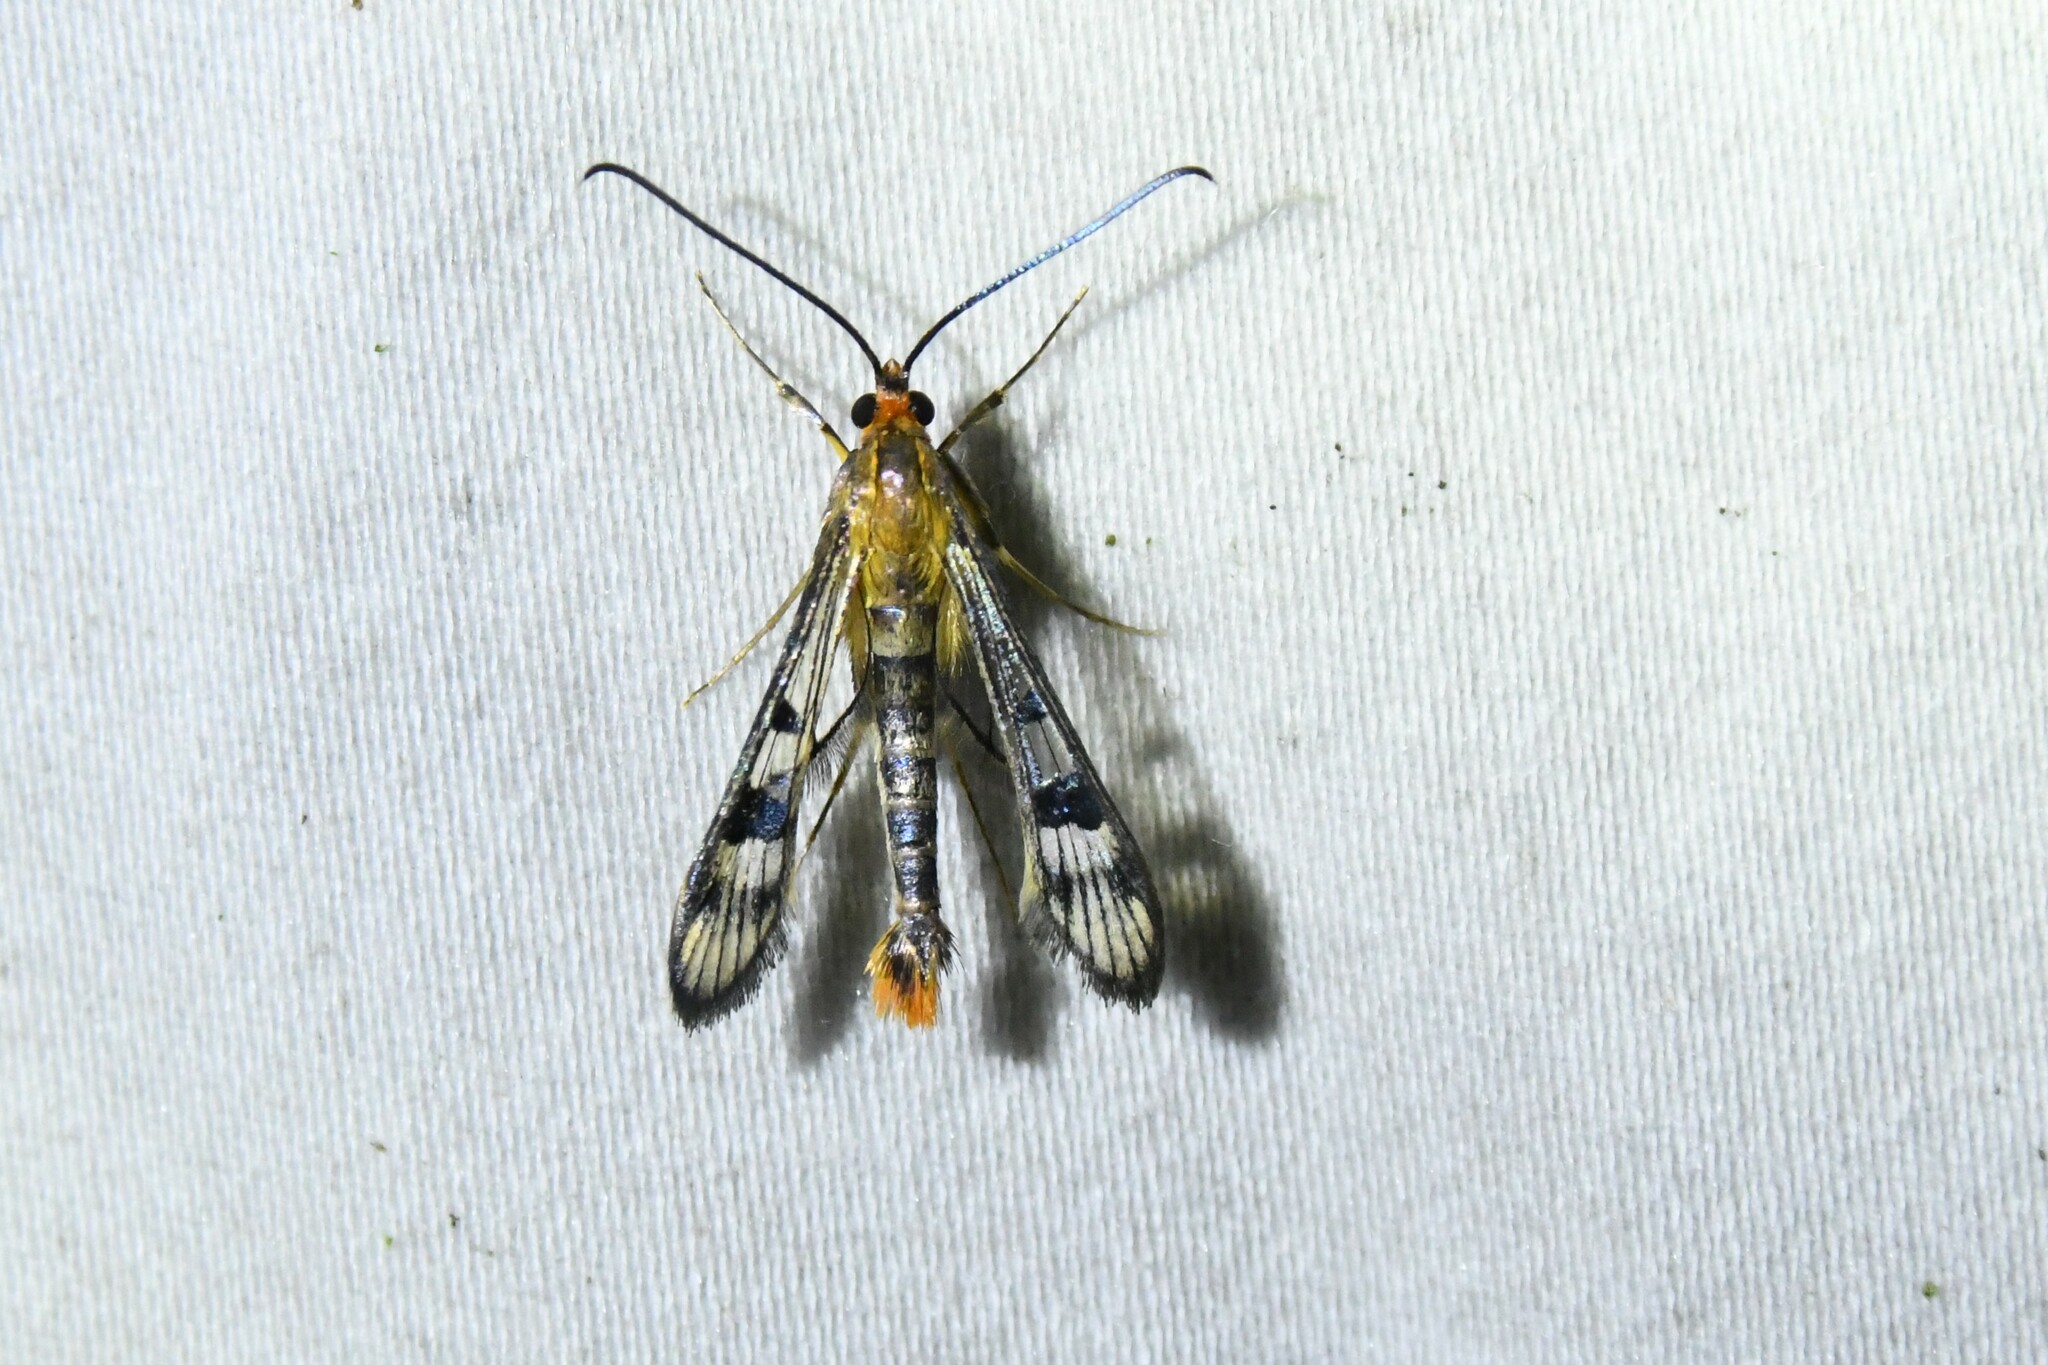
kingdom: Animalia
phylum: Arthropoda
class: Insecta
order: Lepidoptera
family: Sesiidae
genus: Synanthedon
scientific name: Synanthedon acerni
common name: Maple callus borer moth
